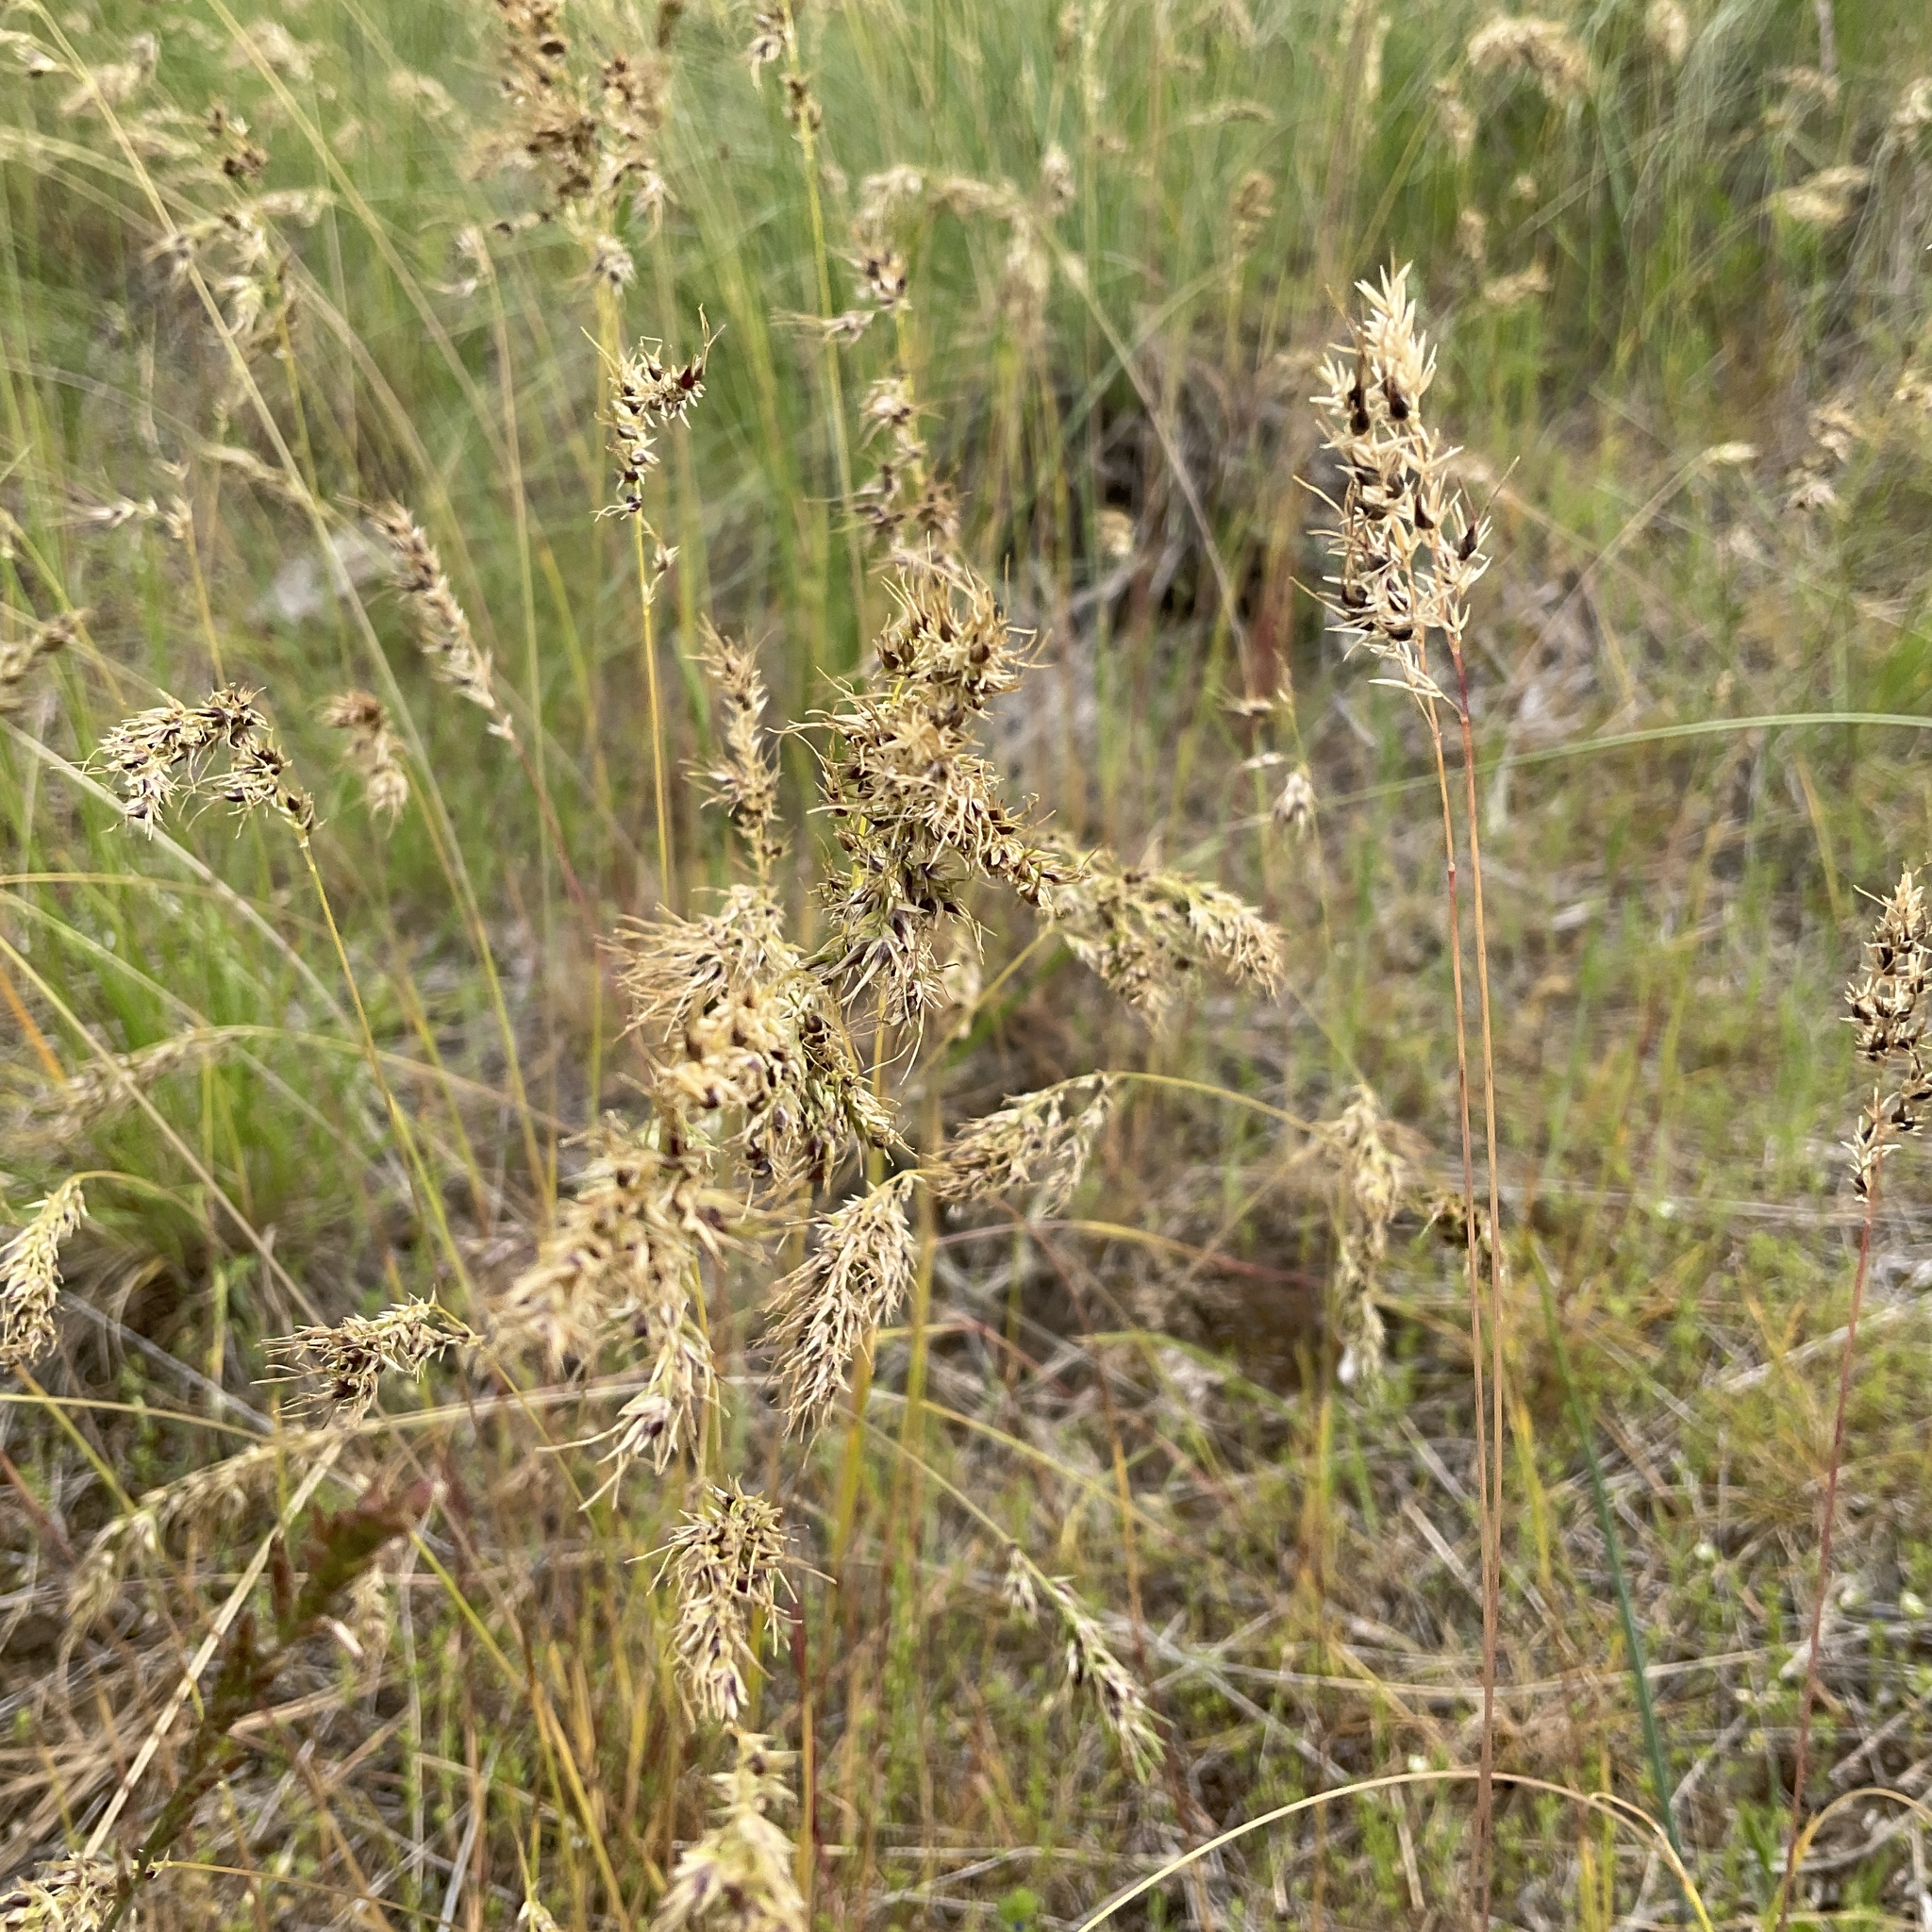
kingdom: Plantae
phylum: Tracheophyta
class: Liliopsida
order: Poales
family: Poaceae
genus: Poa
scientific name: Poa bulbosa
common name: Bulbous bluegrass
